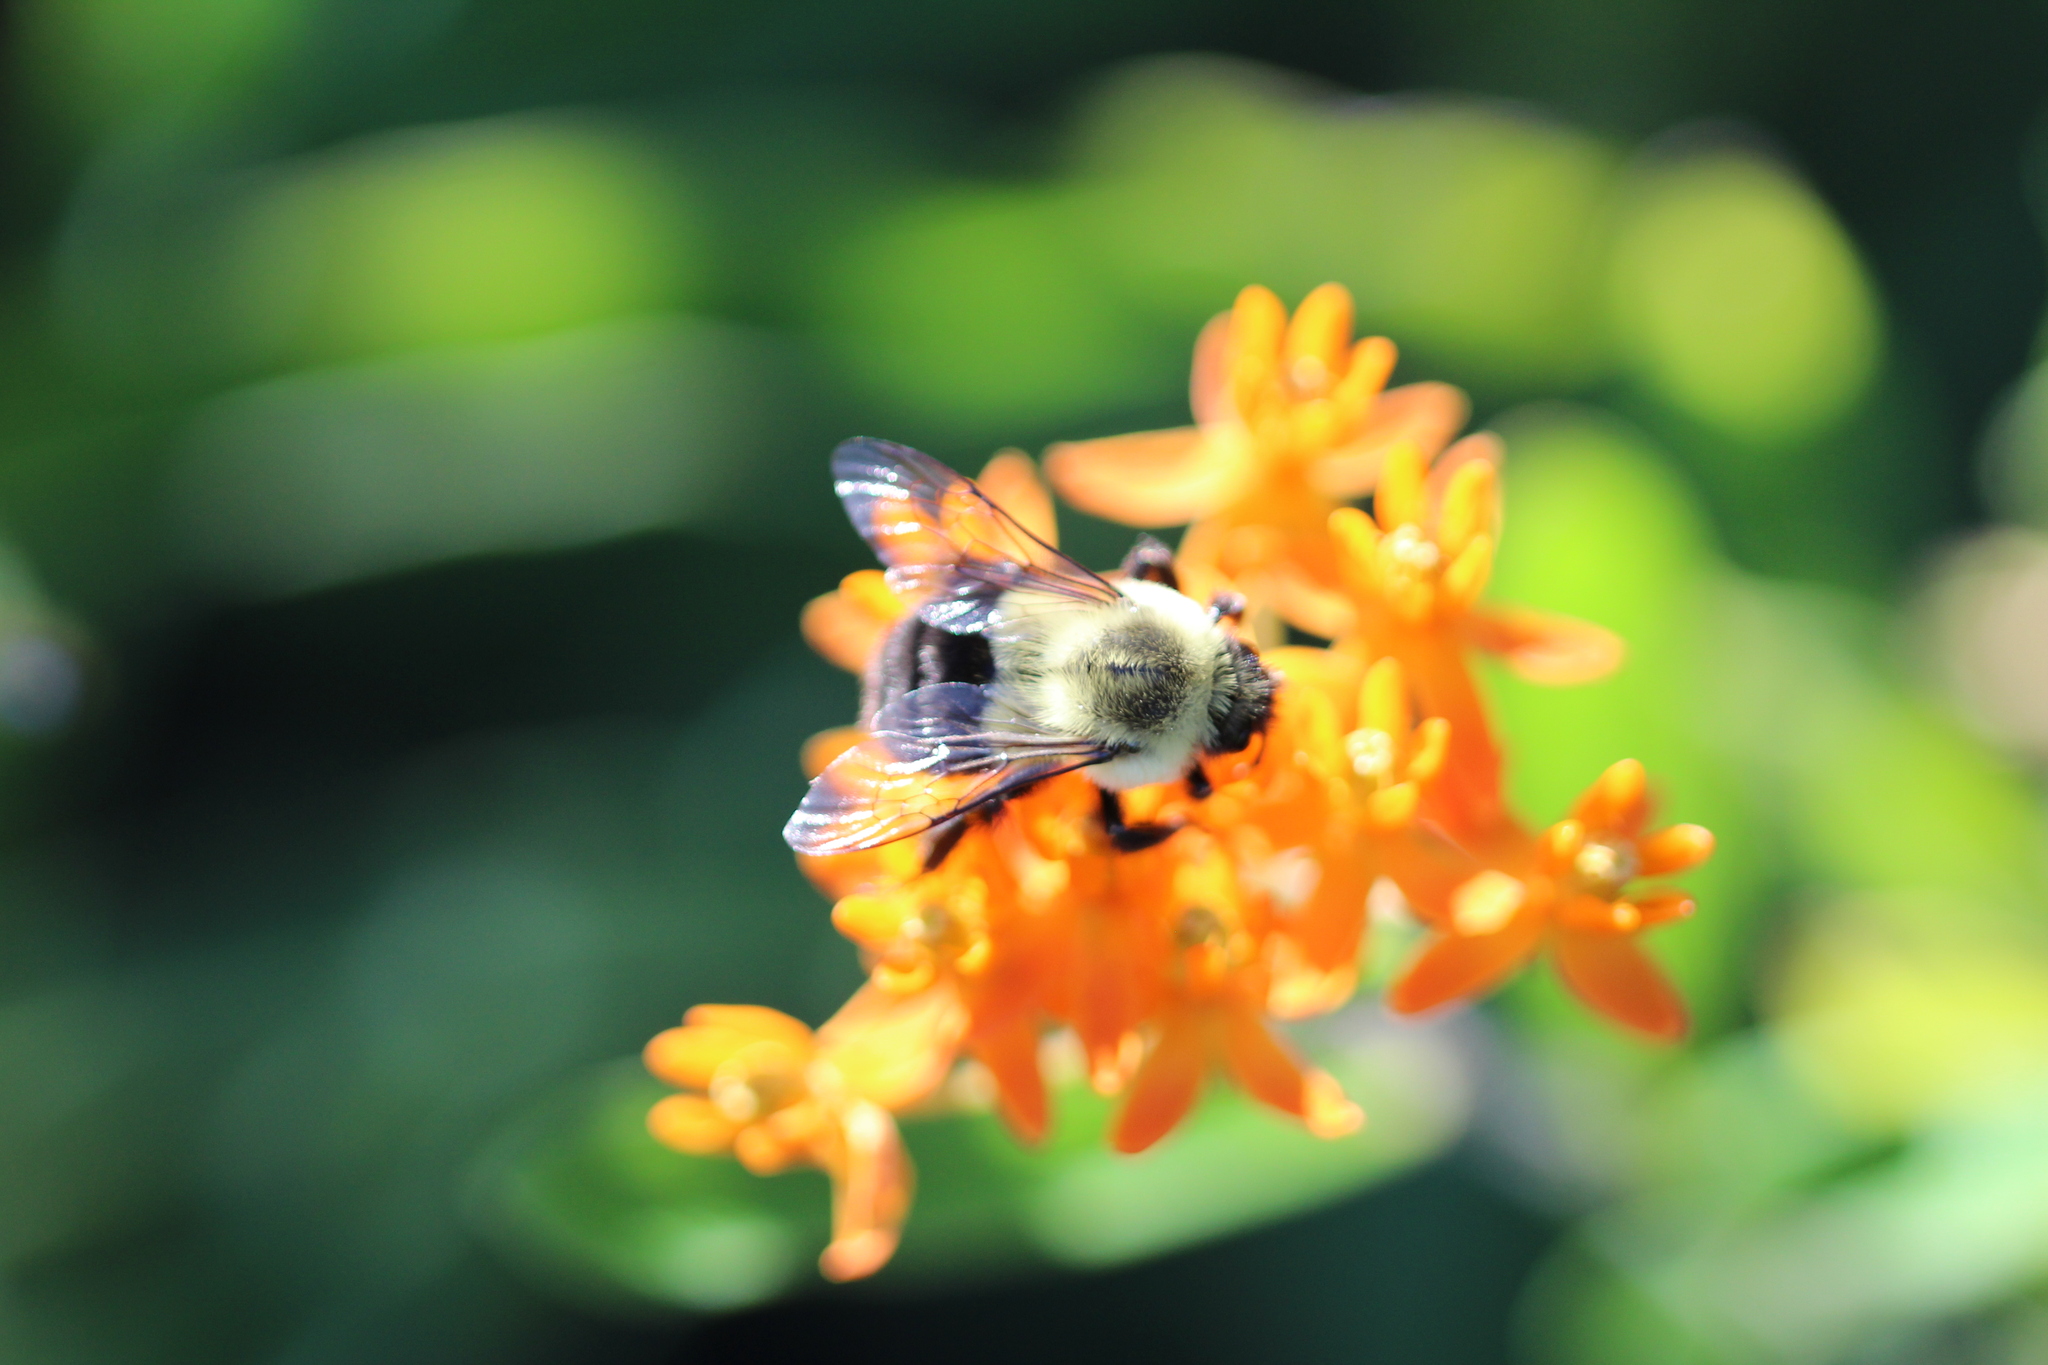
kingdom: Animalia
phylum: Arthropoda
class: Insecta
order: Hymenoptera
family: Apidae
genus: Bombus
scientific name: Bombus impatiens
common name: Common eastern bumble bee
